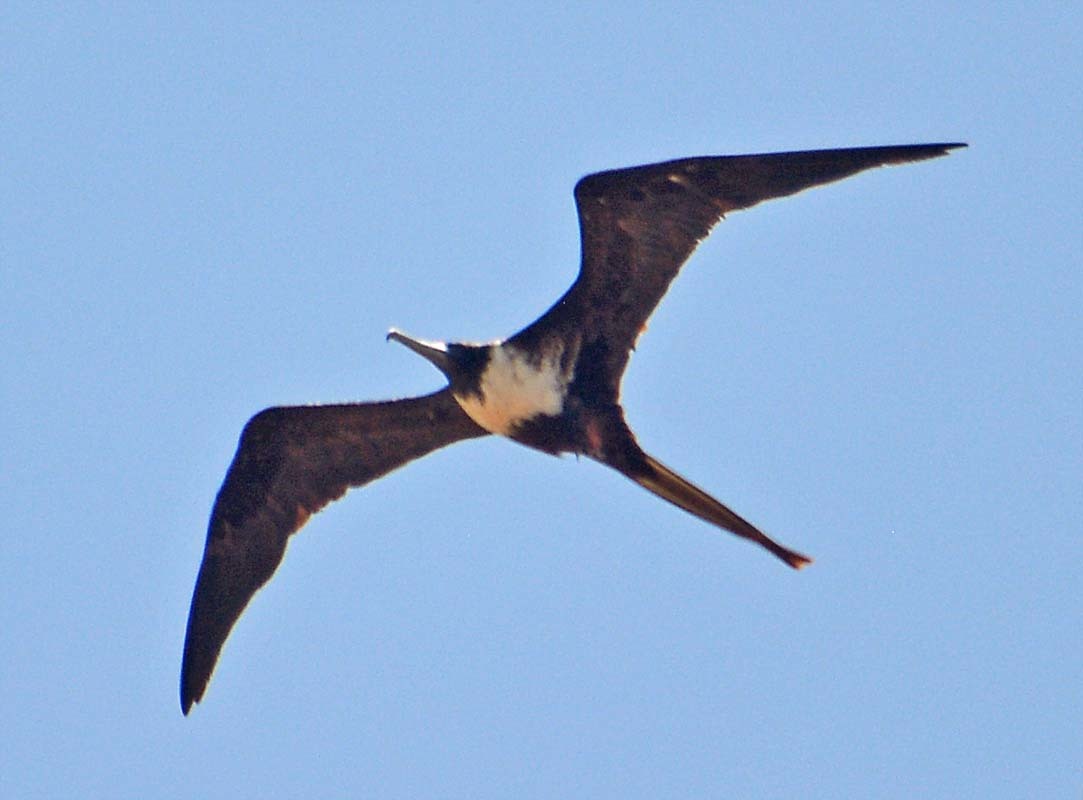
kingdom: Animalia
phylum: Chordata
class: Aves
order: Suliformes
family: Fregatidae
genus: Fregata
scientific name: Fregata magnificens
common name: Magnificent frigatebird
